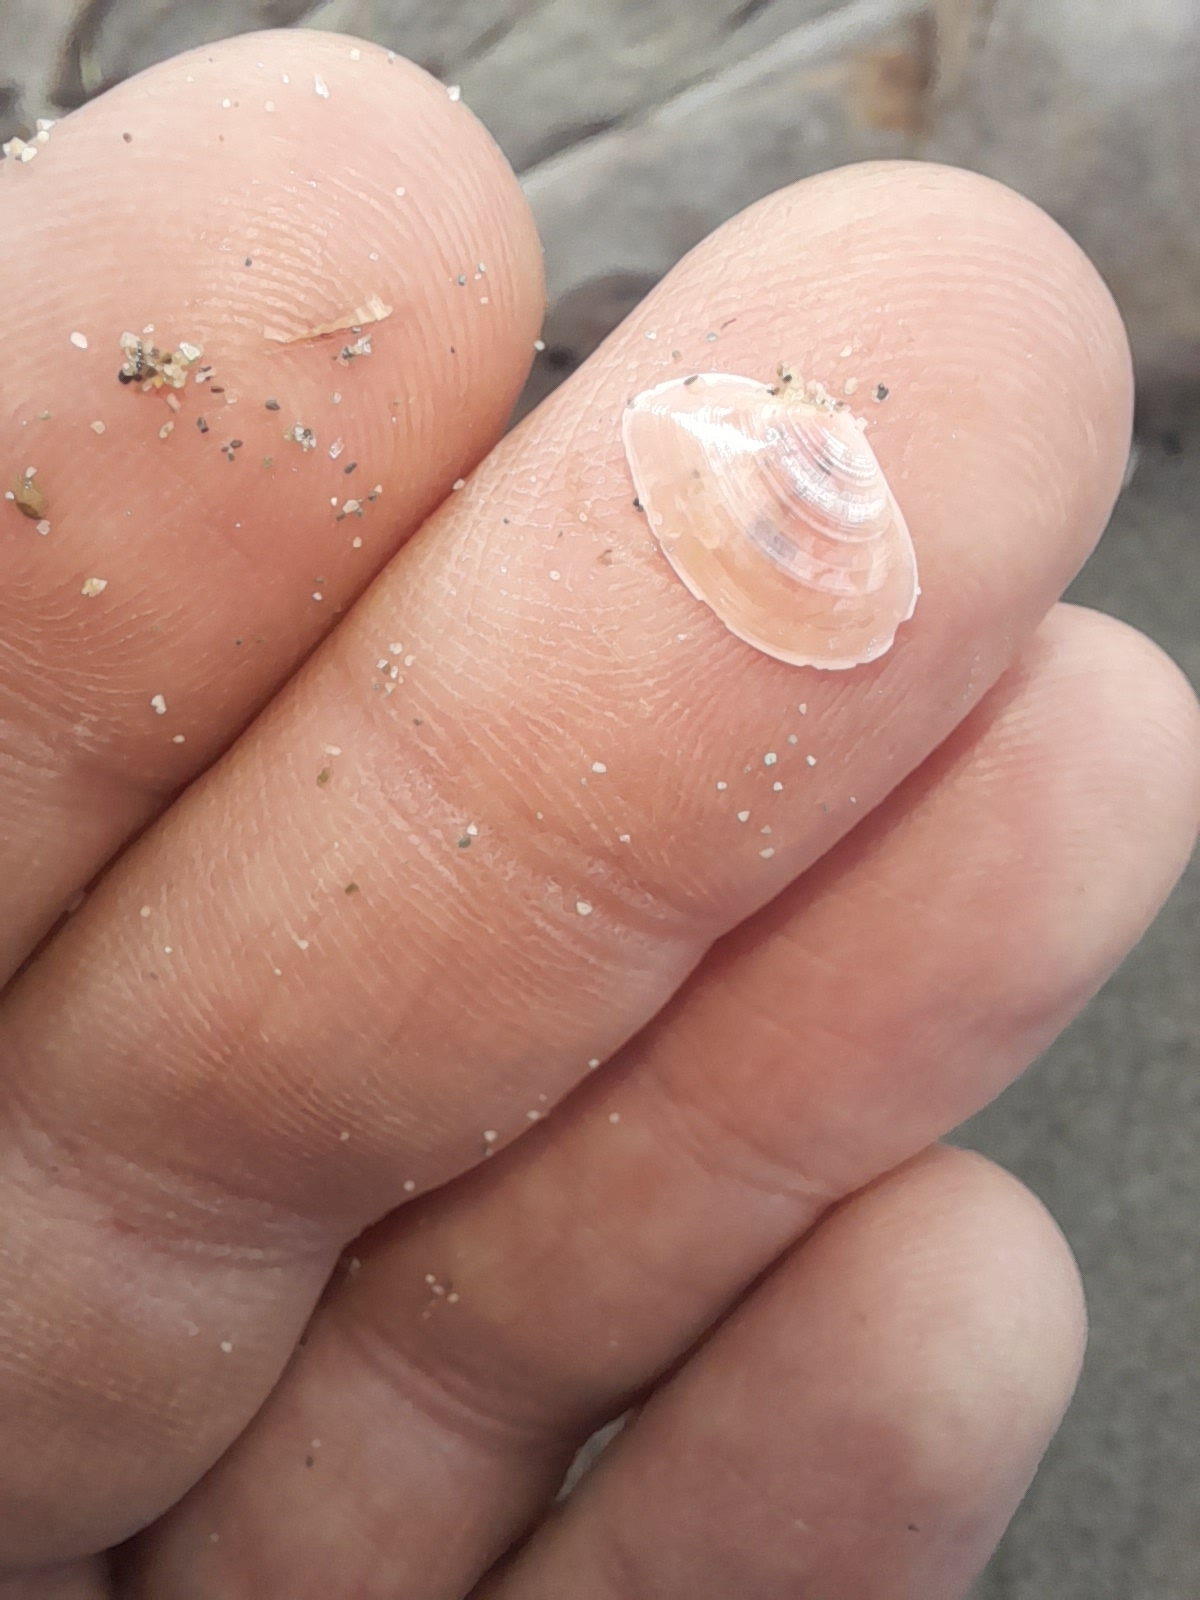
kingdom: Animalia
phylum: Mollusca
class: Bivalvia
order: Cardiida
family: Tellinidae
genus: Macomangulus
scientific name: Macomangulus tenuis
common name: Thin tellin
